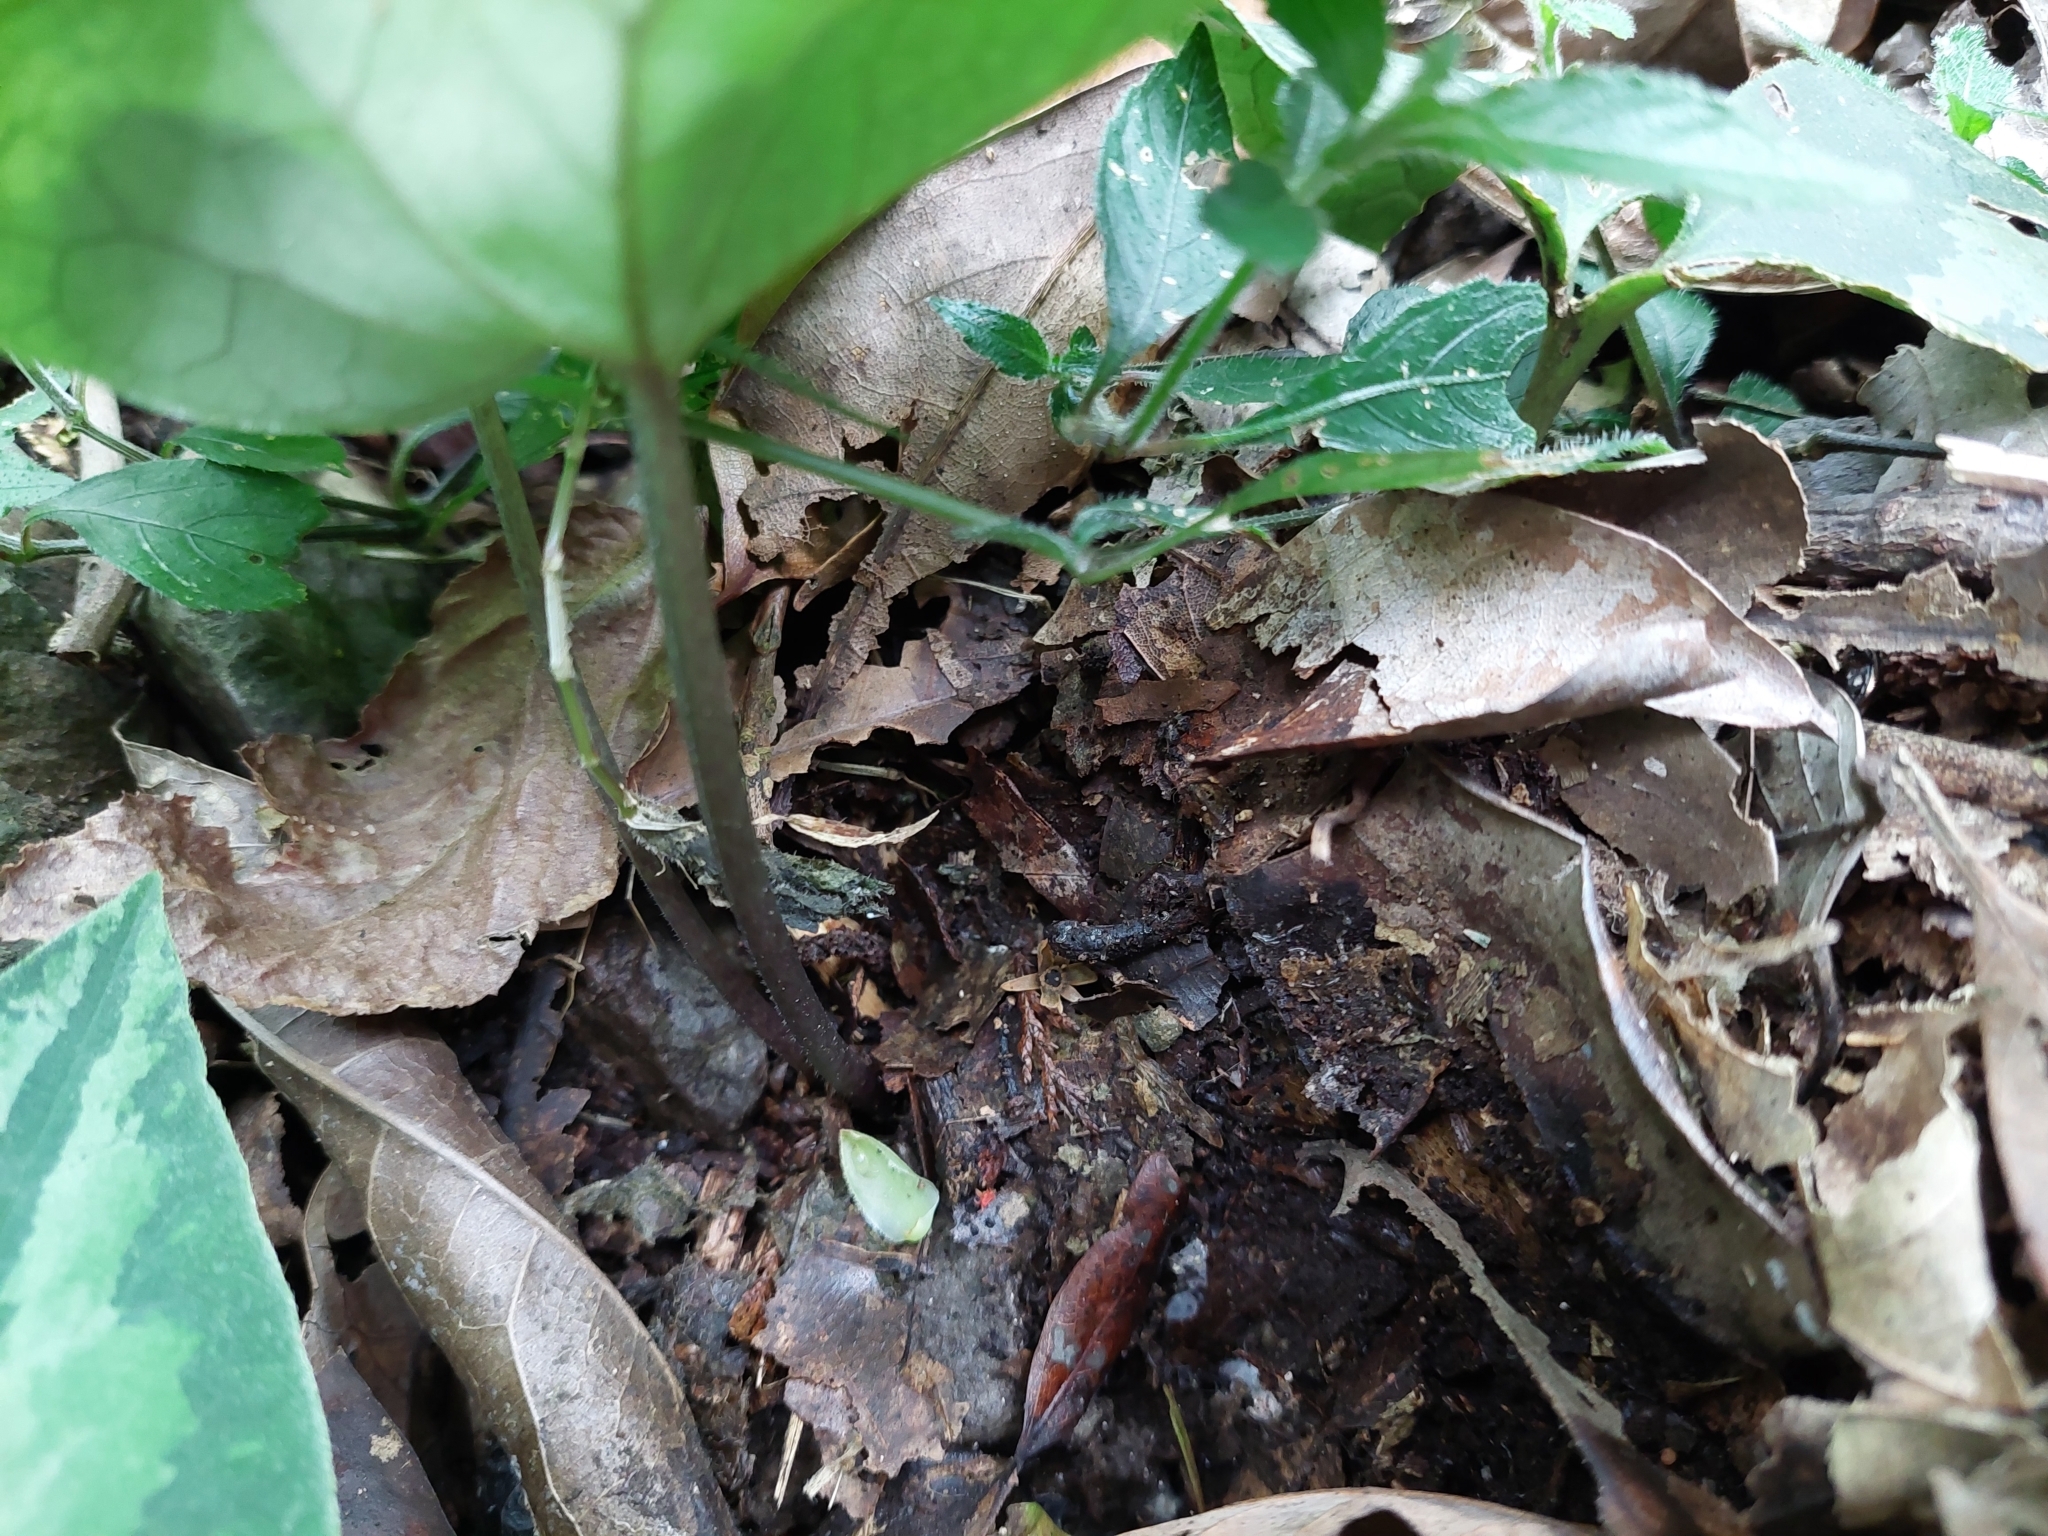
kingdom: Plantae
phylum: Tracheophyta
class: Magnoliopsida
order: Piperales
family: Aristolochiaceae
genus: Asarum
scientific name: Asarum macranthum
